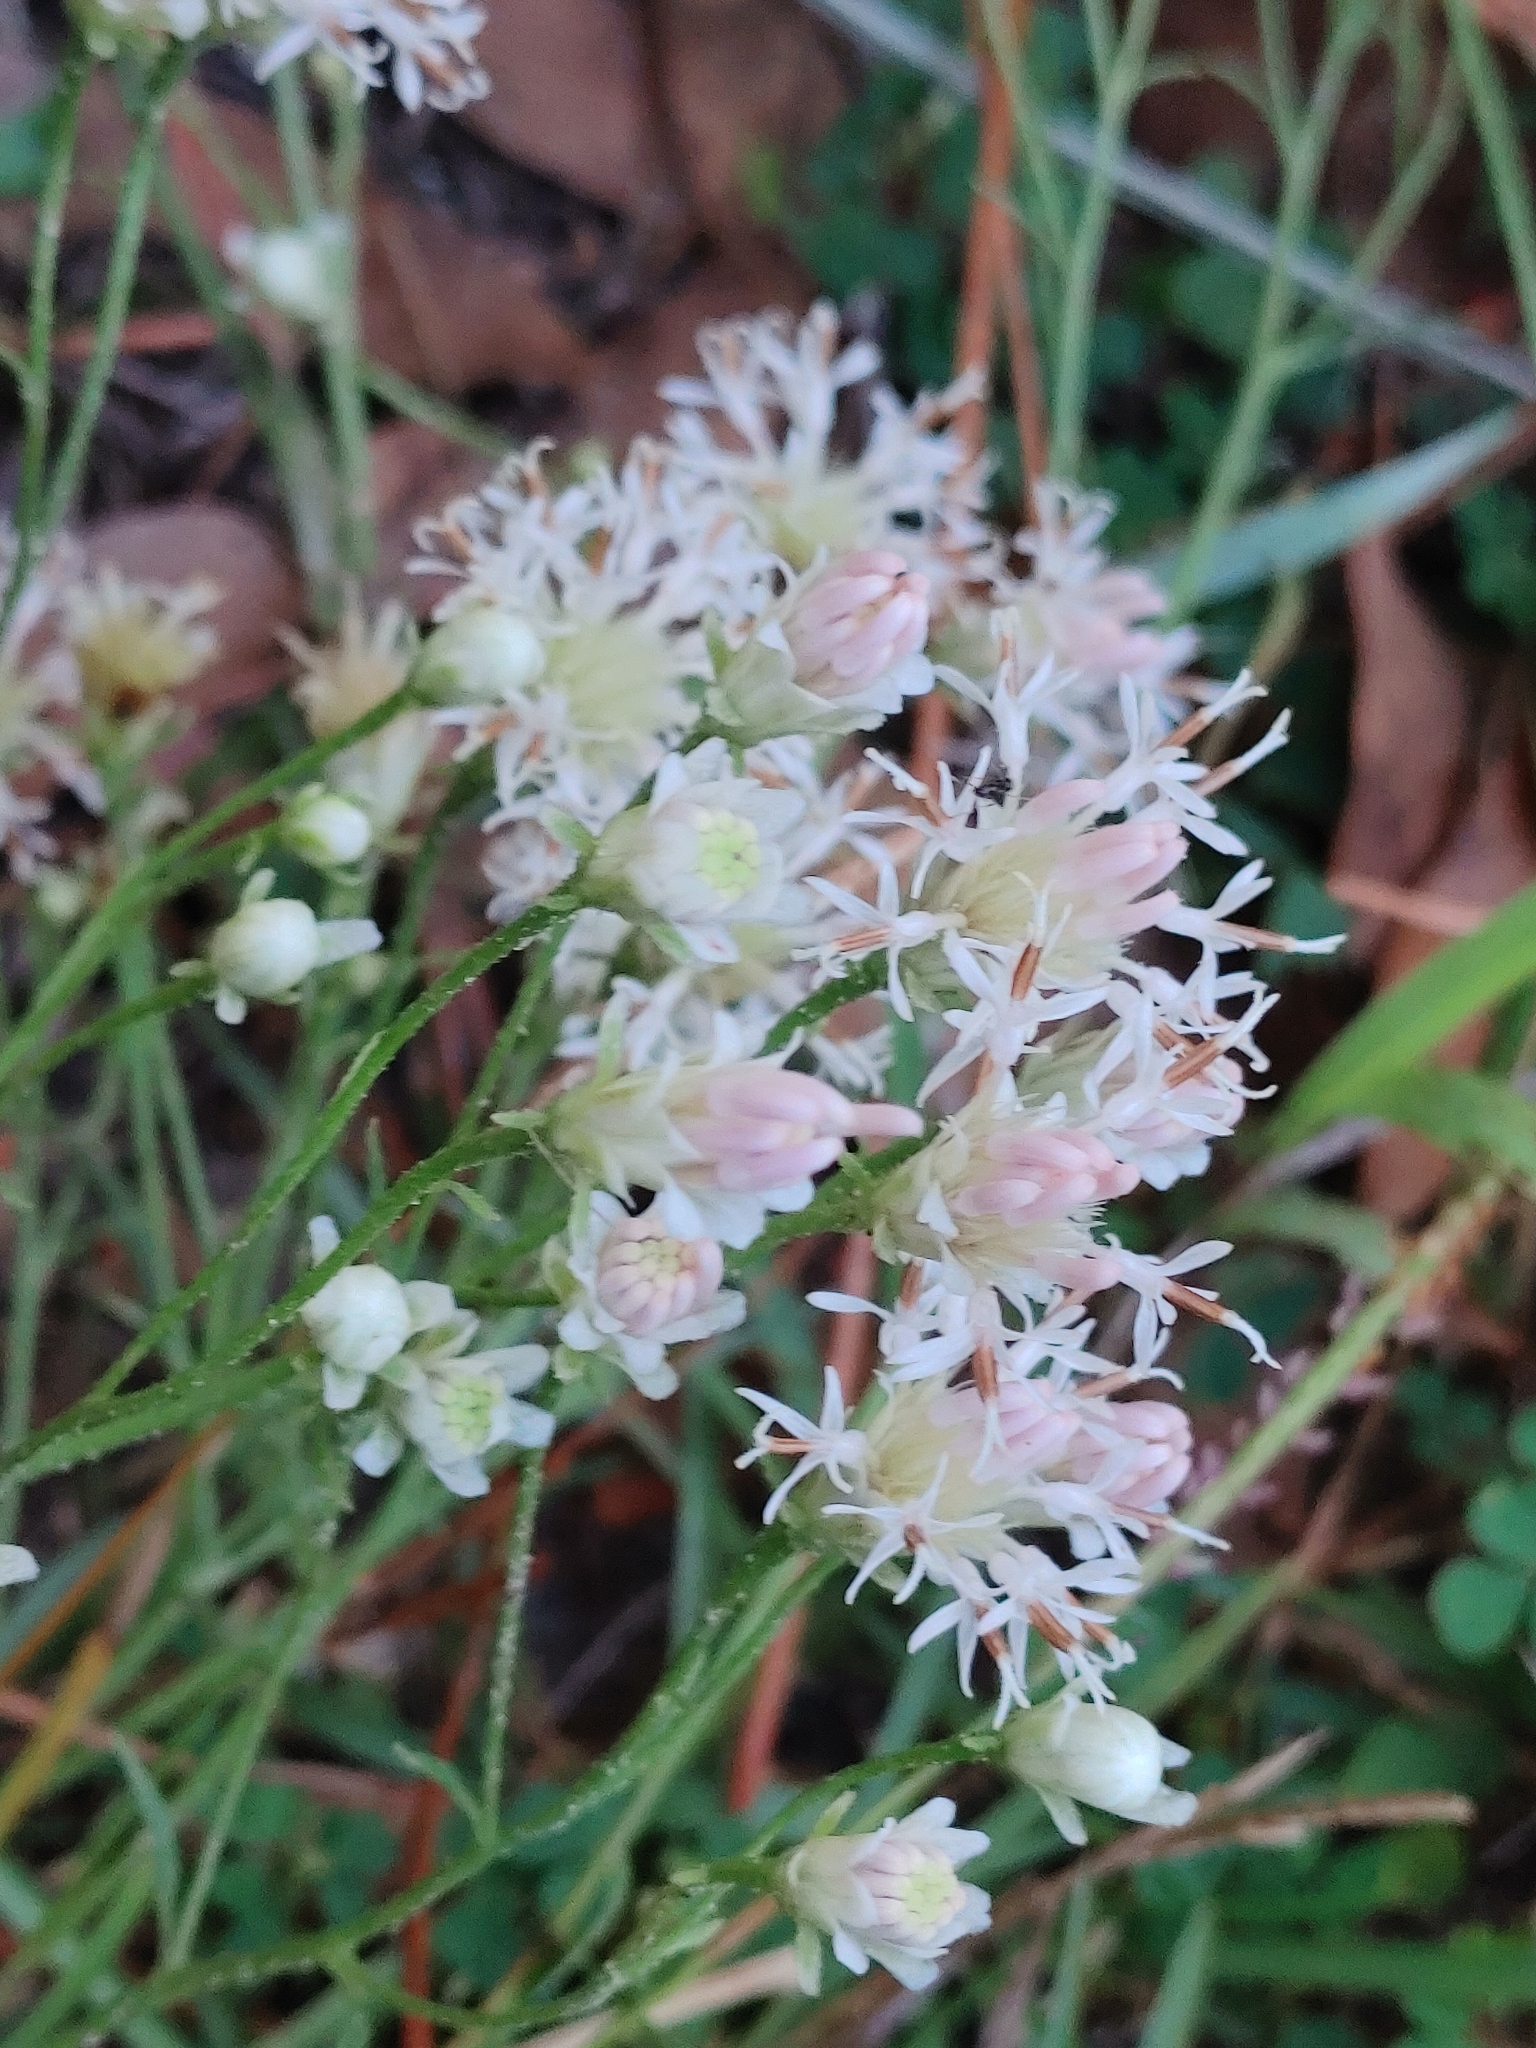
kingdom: Plantae
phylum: Tracheophyta
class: Magnoliopsida
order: Asterales
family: Asteraceae
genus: Palafoxia
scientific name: Palafoxia integrifolia
